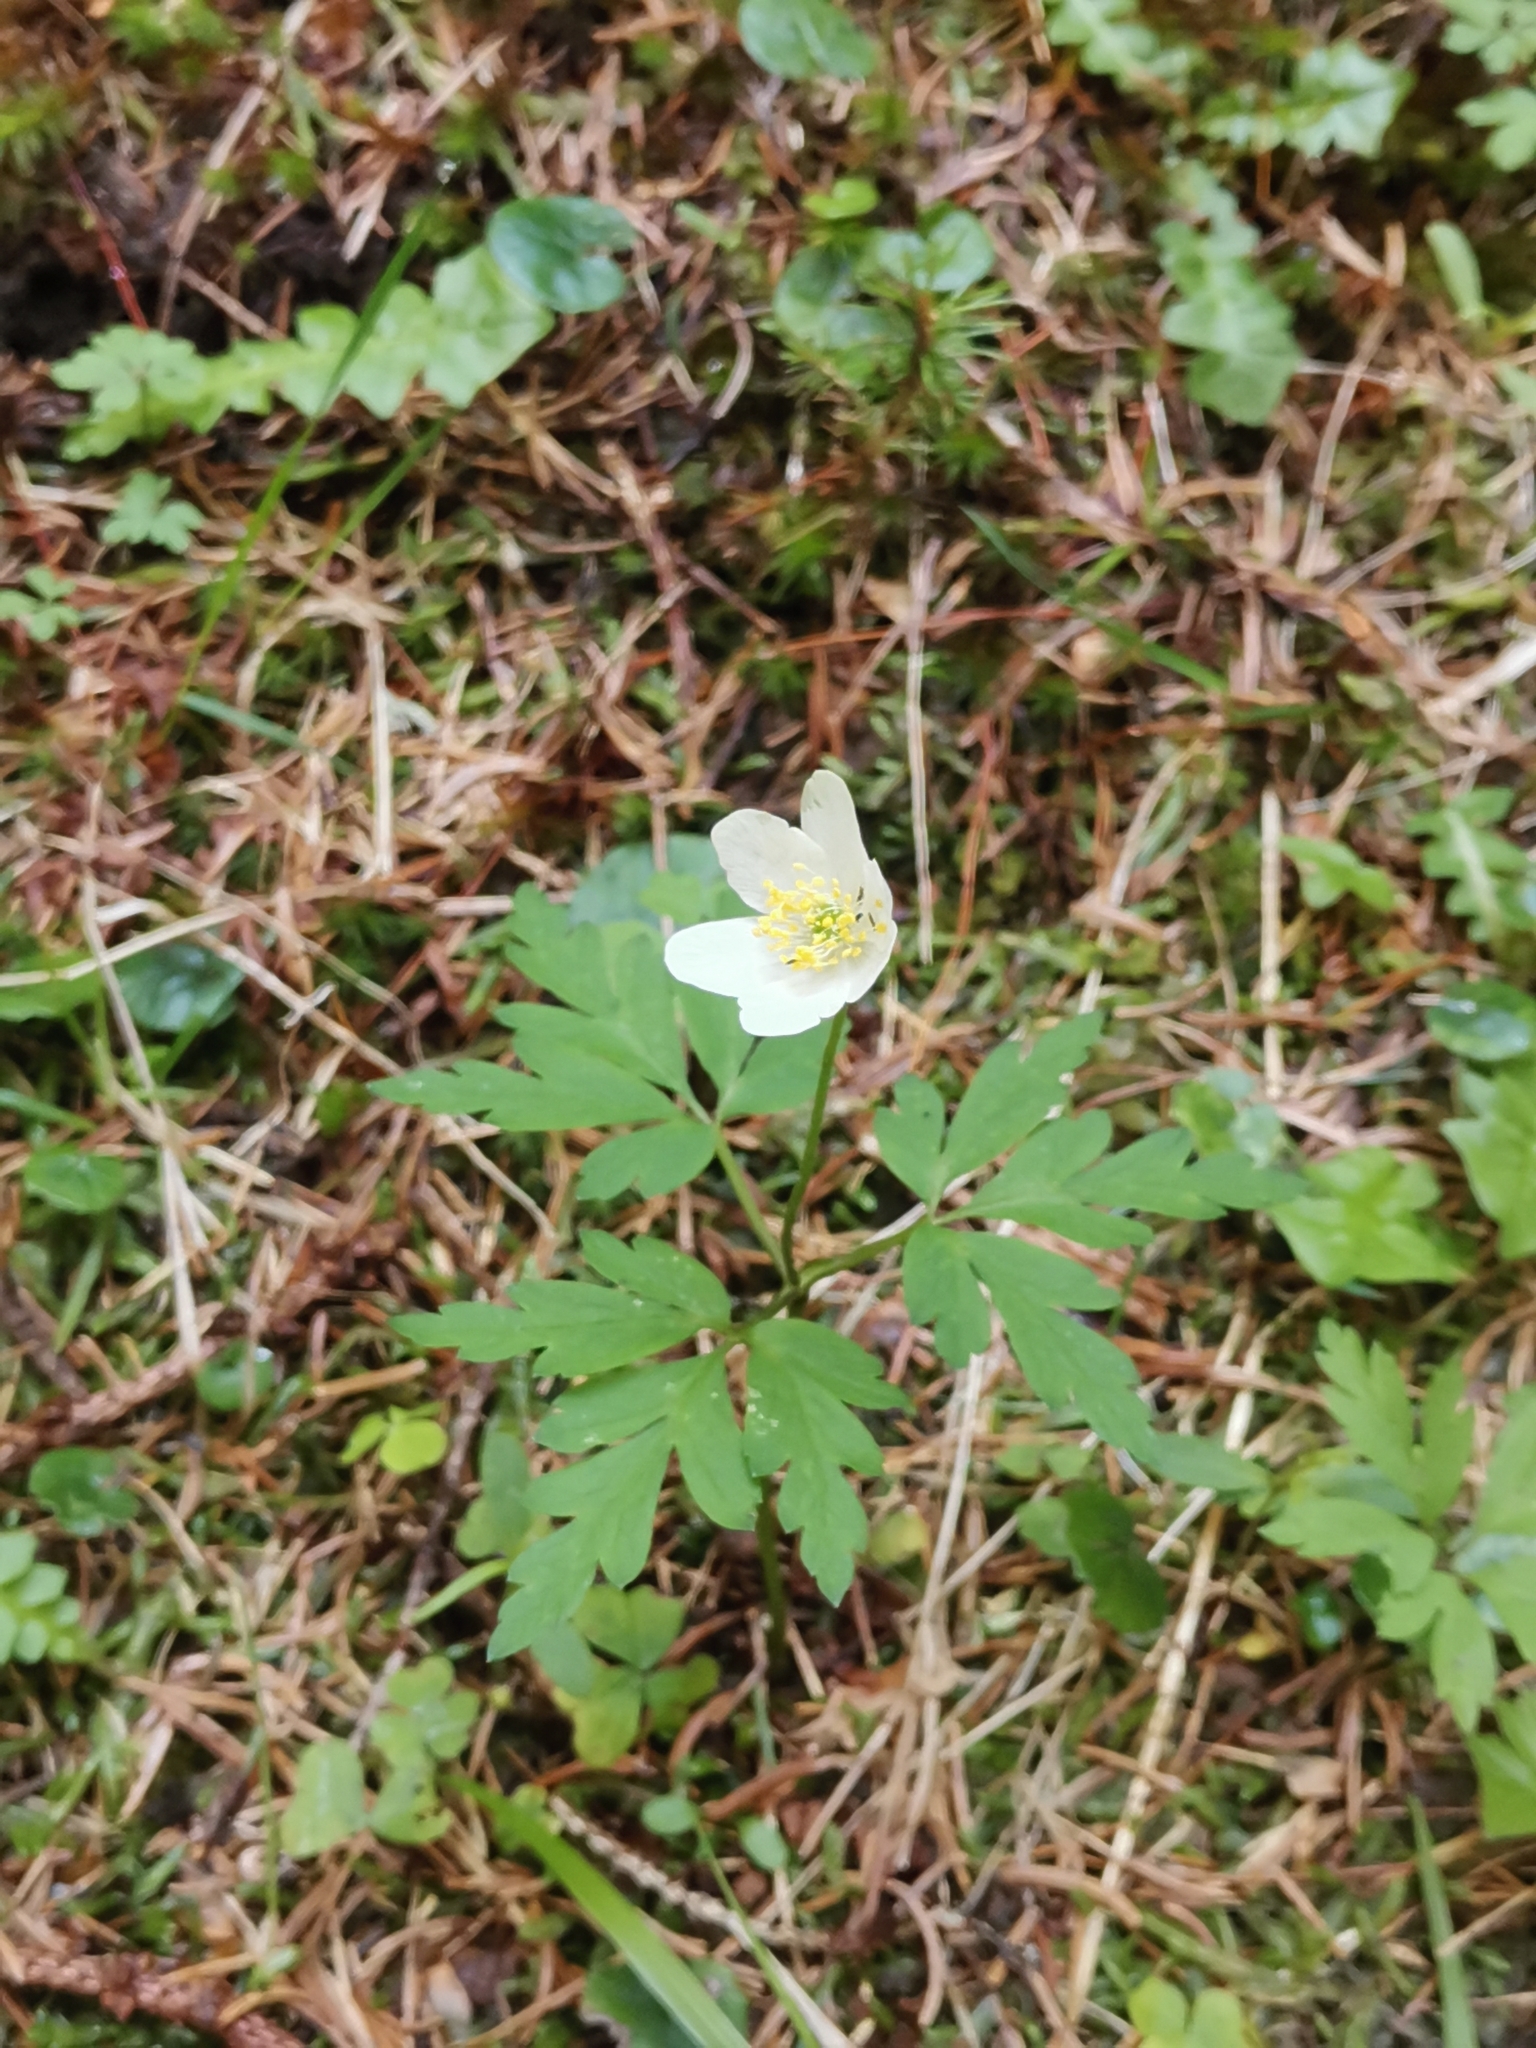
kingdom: Plantae
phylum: Tracheophyta
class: Magnoliopsida
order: Ranunculales
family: Ranunculaceae
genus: Anemone
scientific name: Anemone nemorosa
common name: Wood anemone
